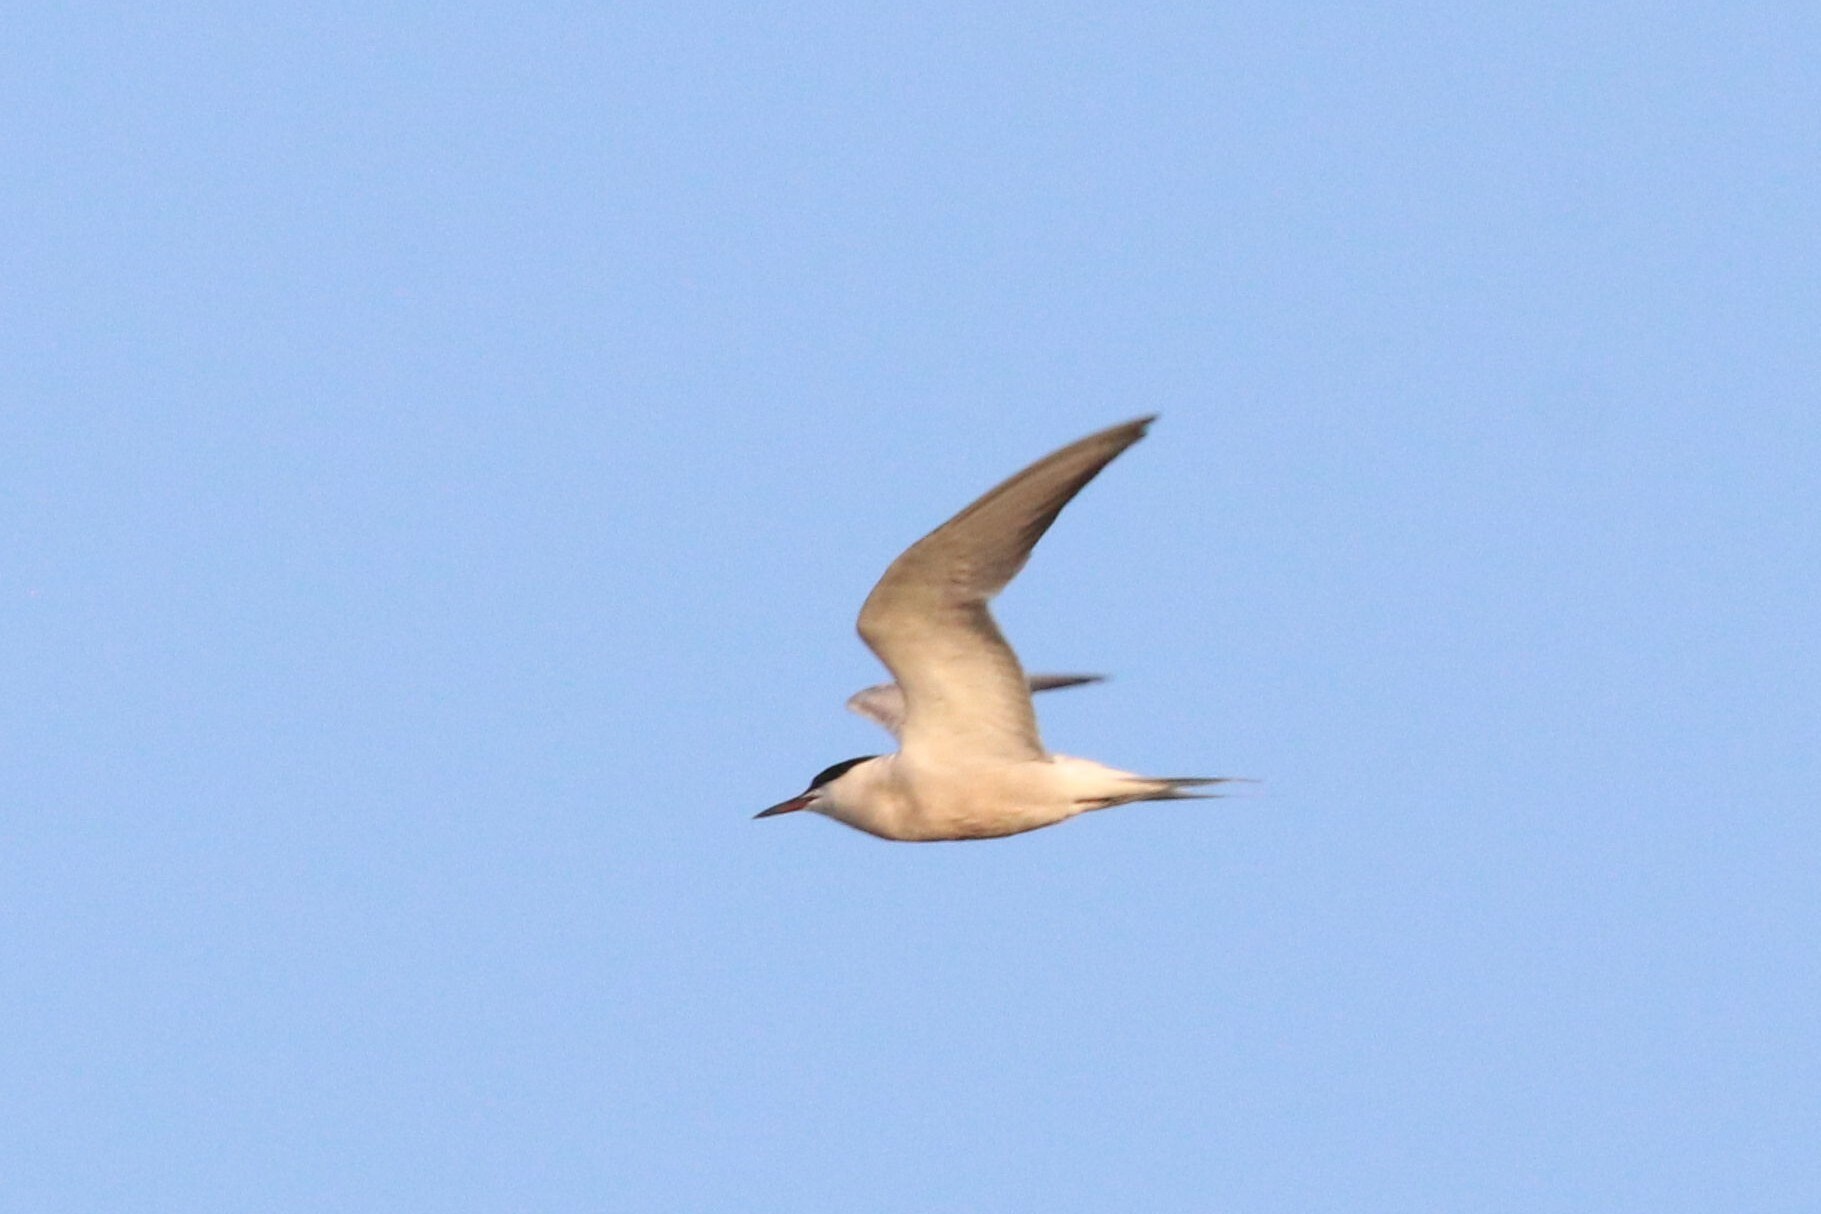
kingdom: Animalia
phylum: Chordata
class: Aves
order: Charadriiformes
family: Laridae
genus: Sterna
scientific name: Sterna hirundo
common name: Common tern
